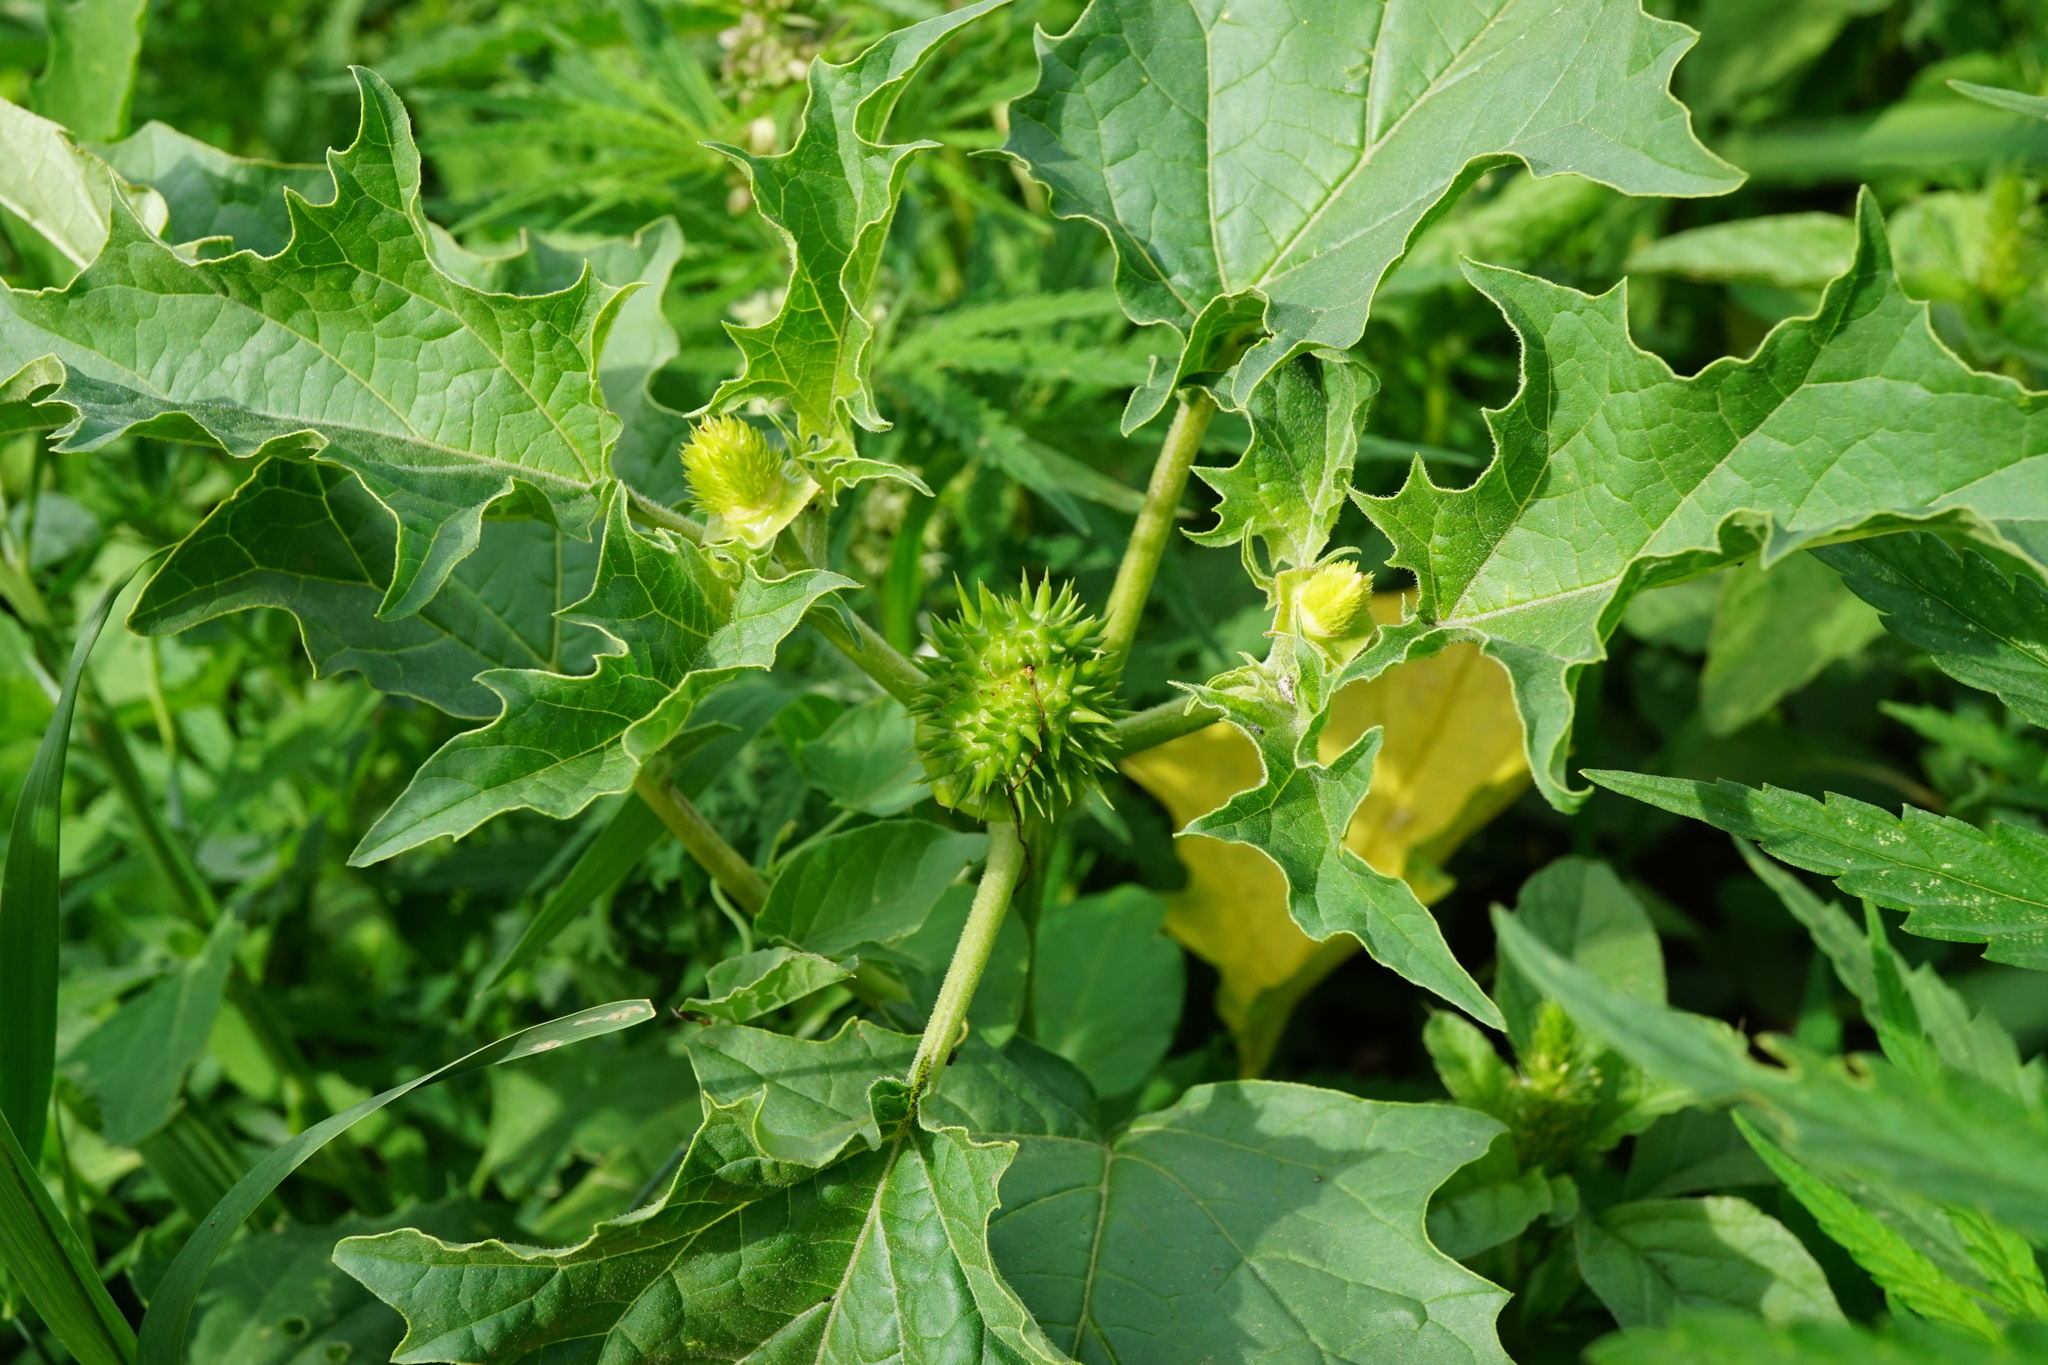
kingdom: Plantae
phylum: Tracheophyta
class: Magnoliopsida
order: Solanales
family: Solanaceae
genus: Datura
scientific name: Datura stramonium
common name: Thorn-apple
